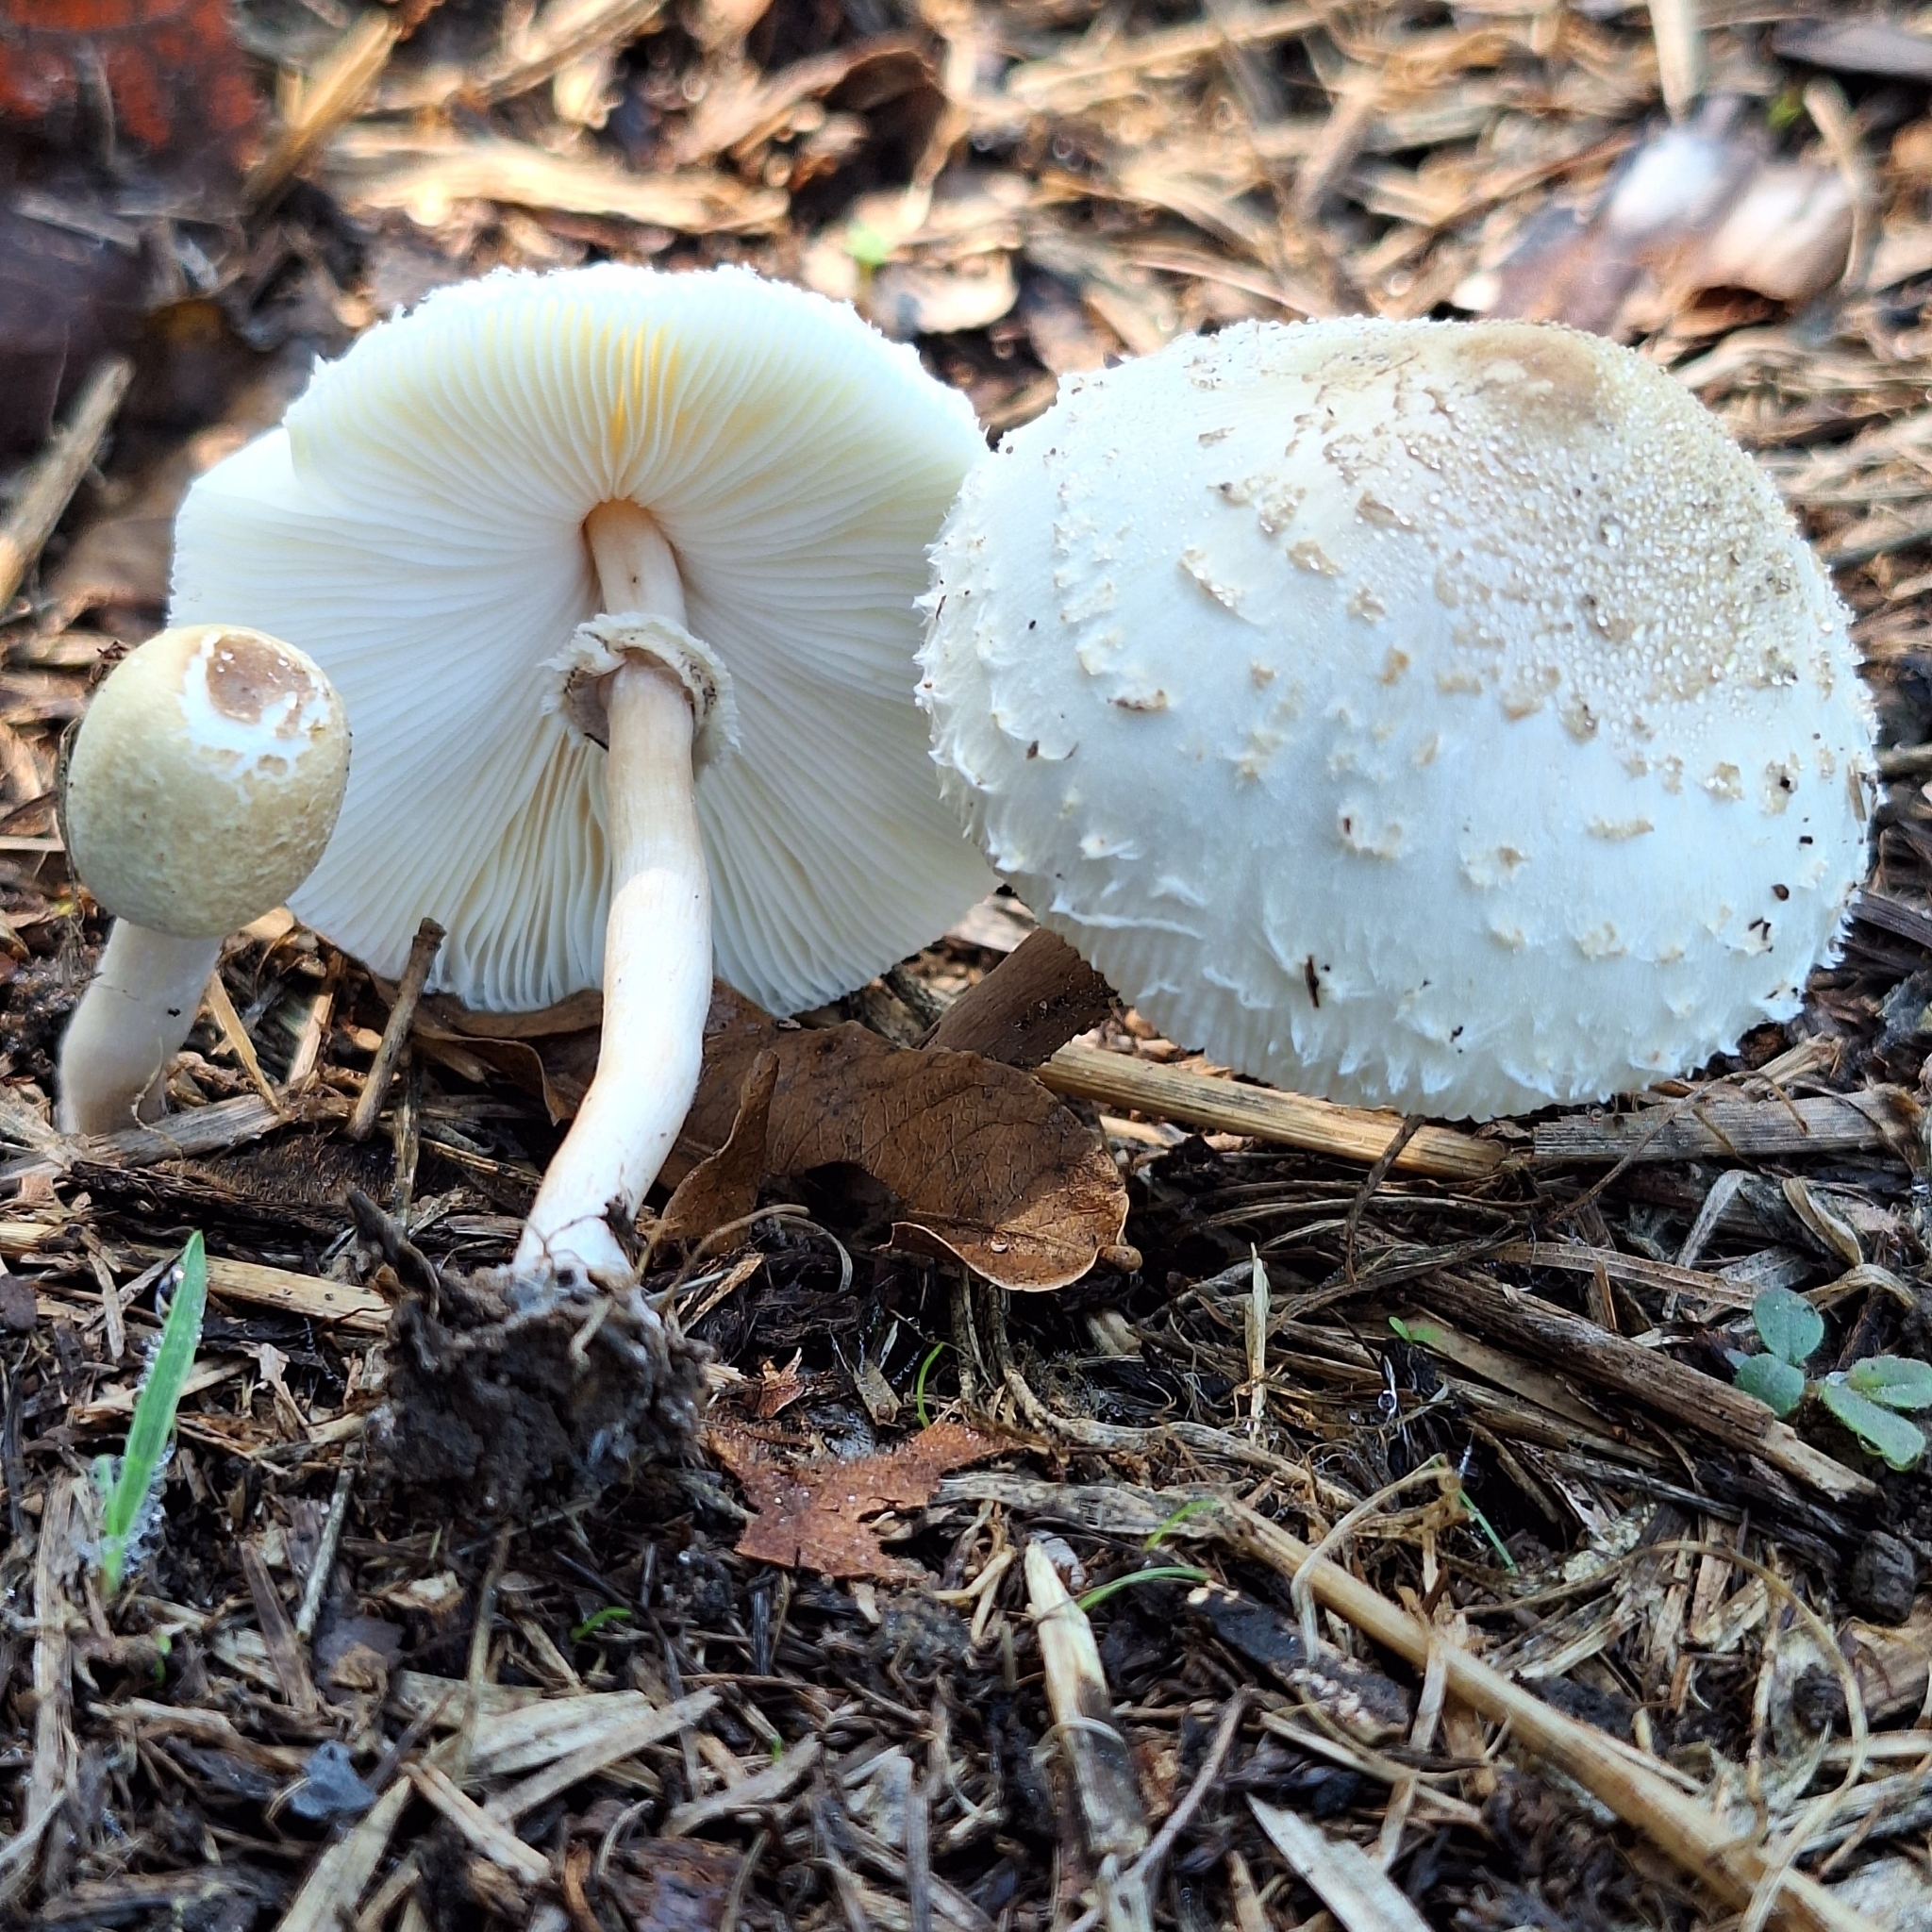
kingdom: Fungi
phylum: Basidiomycota
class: Agaricomycetes
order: Agaricales
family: Agaricaceae
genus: Chlorophyllum
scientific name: Chlorophyllum hortense
